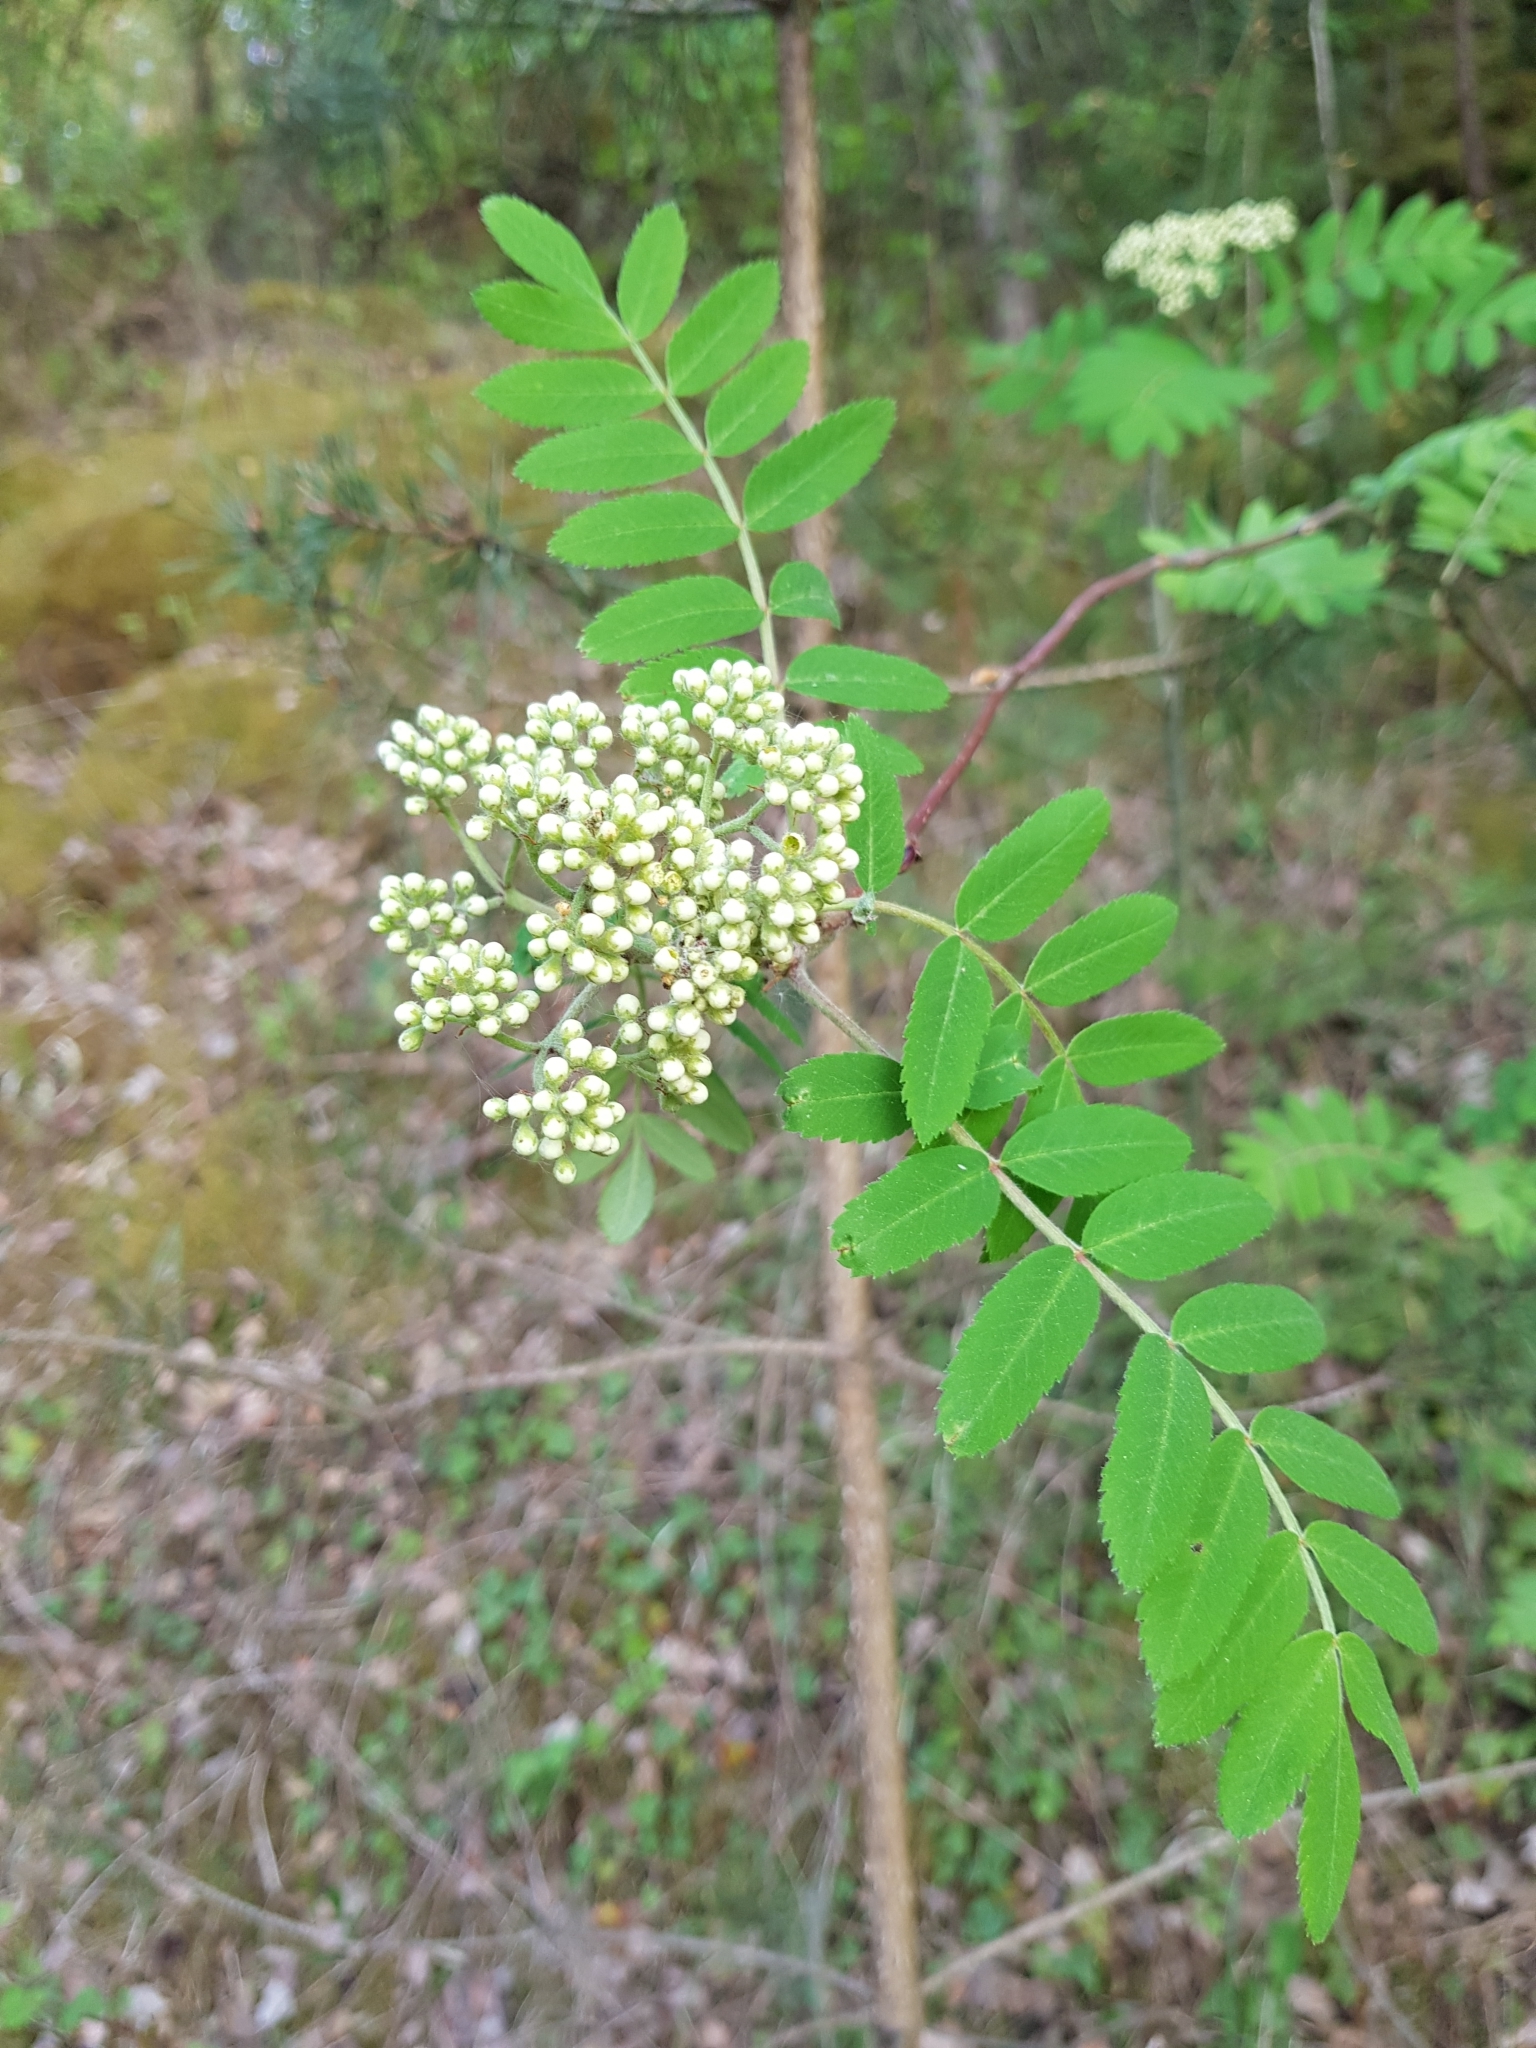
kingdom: Plantae
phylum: Tracheophyta
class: Magnoliopsida
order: Rosales
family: Rosaceae
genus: Sorbus
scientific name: Sorbus aucuparia
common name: Rowan
